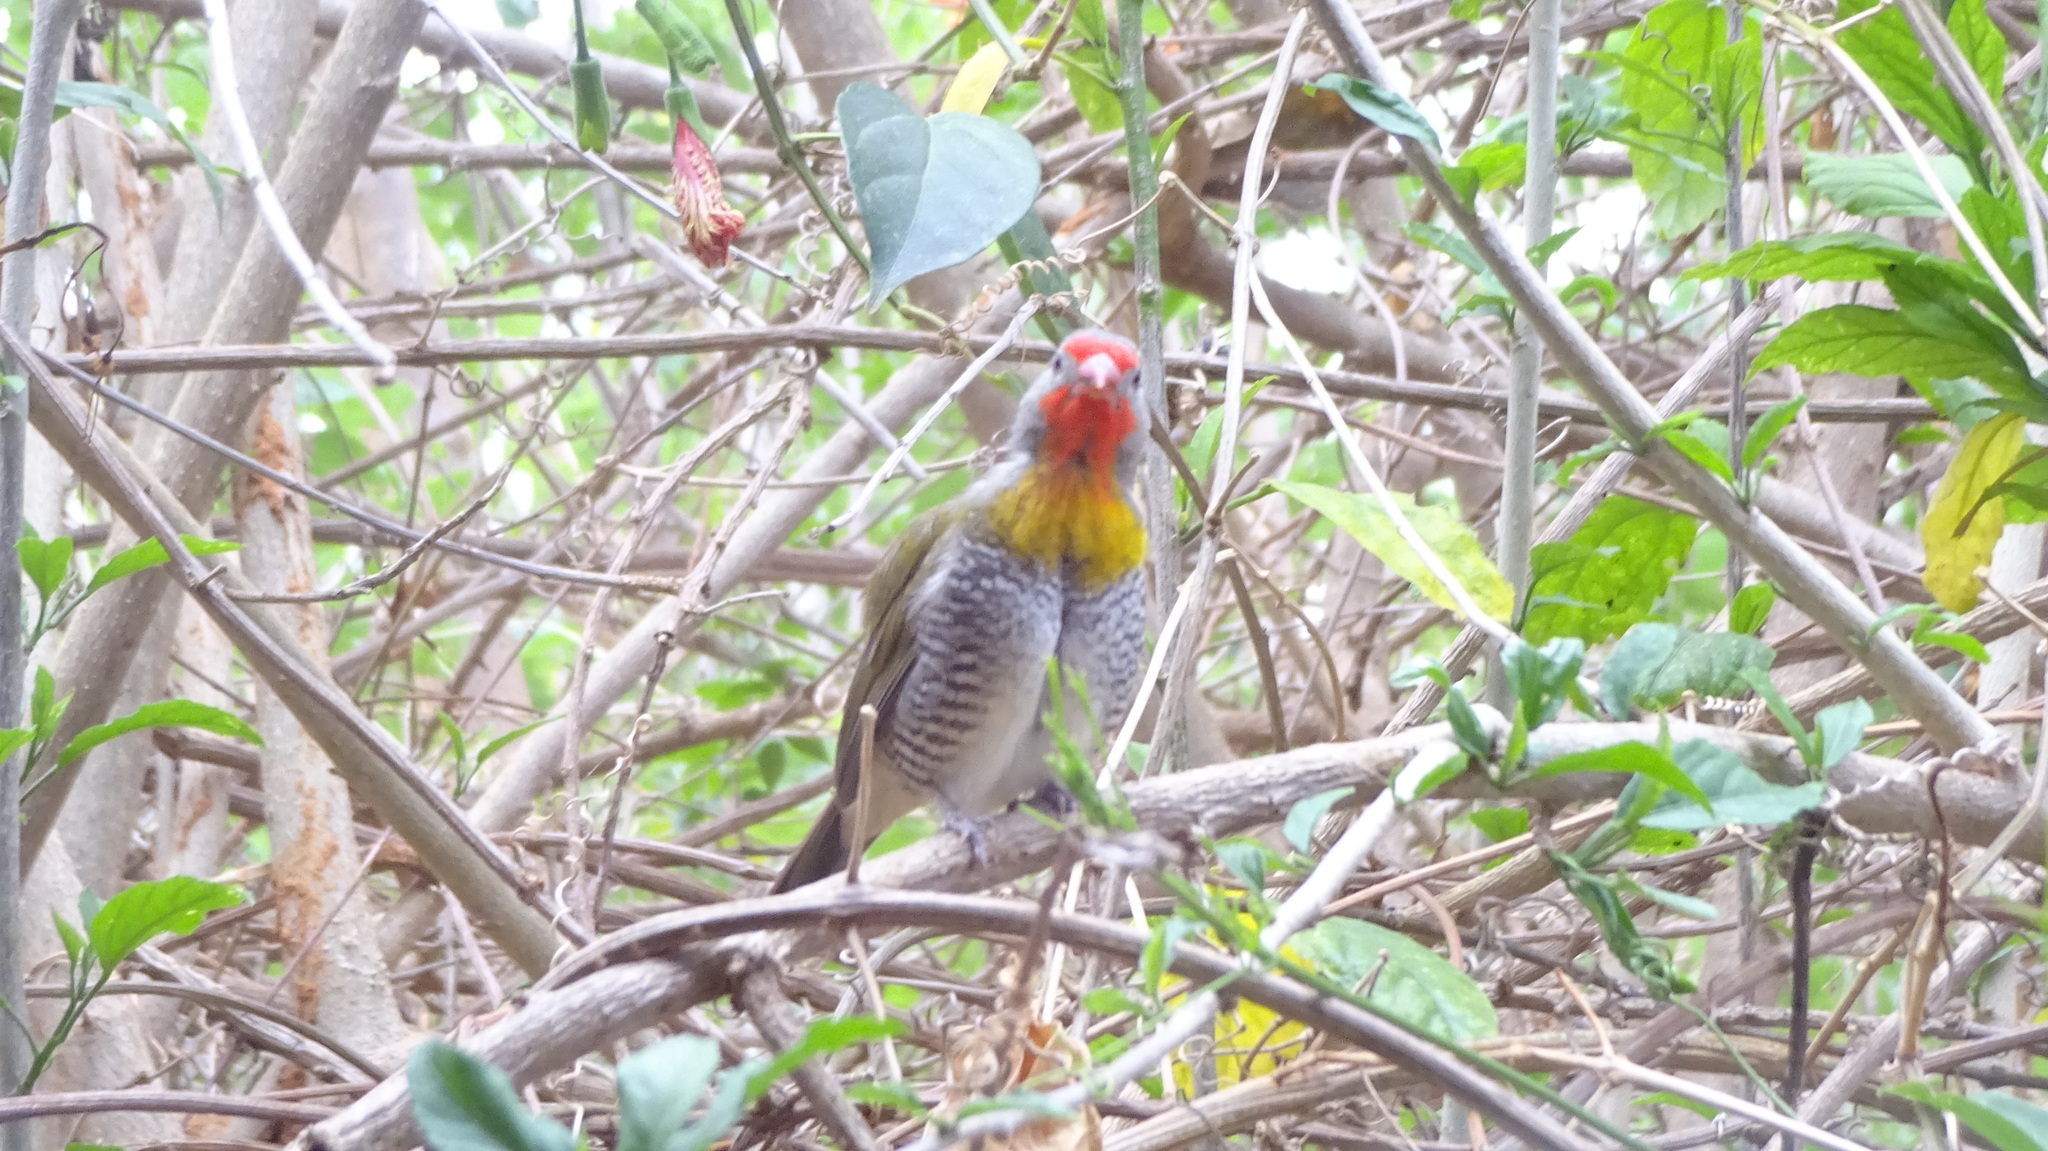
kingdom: Animalia
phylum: Chordata
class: Aves
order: Passeriformes
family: Estrildidae
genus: Pytilia
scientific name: Pytilia melba
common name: Green-winged pytilia
